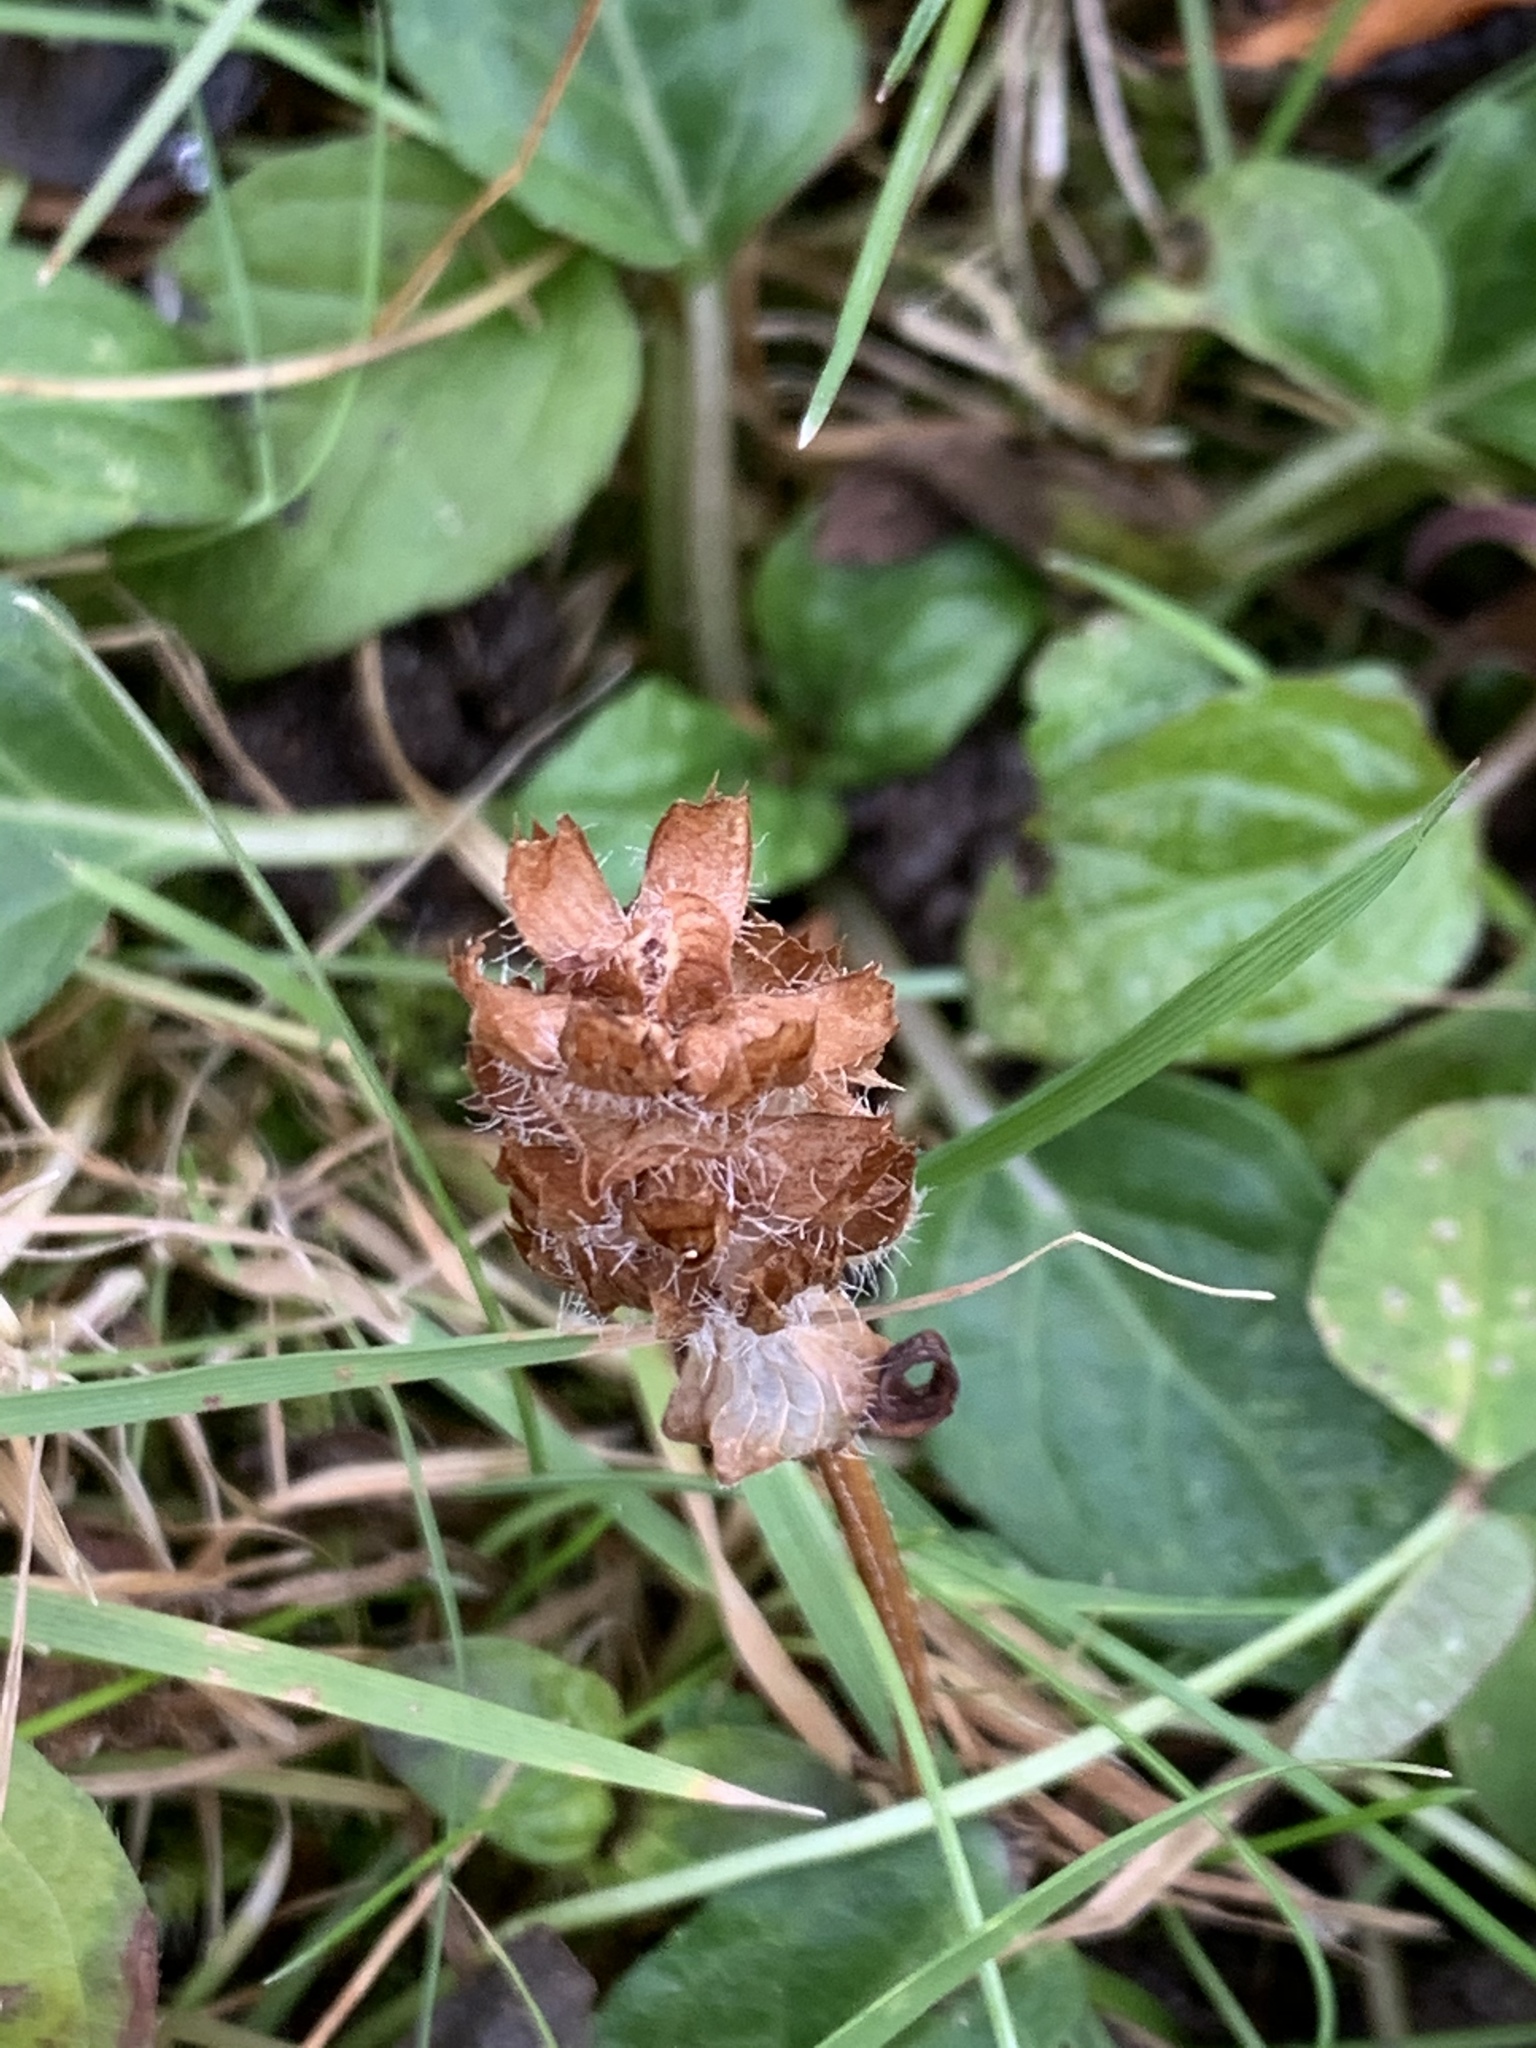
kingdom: Plantae
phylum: Tracheophyta
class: Magnoliopsida
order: Lamiales
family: Lamiaceae
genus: Prunella
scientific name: Prunella vulgaris
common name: Heal-all
